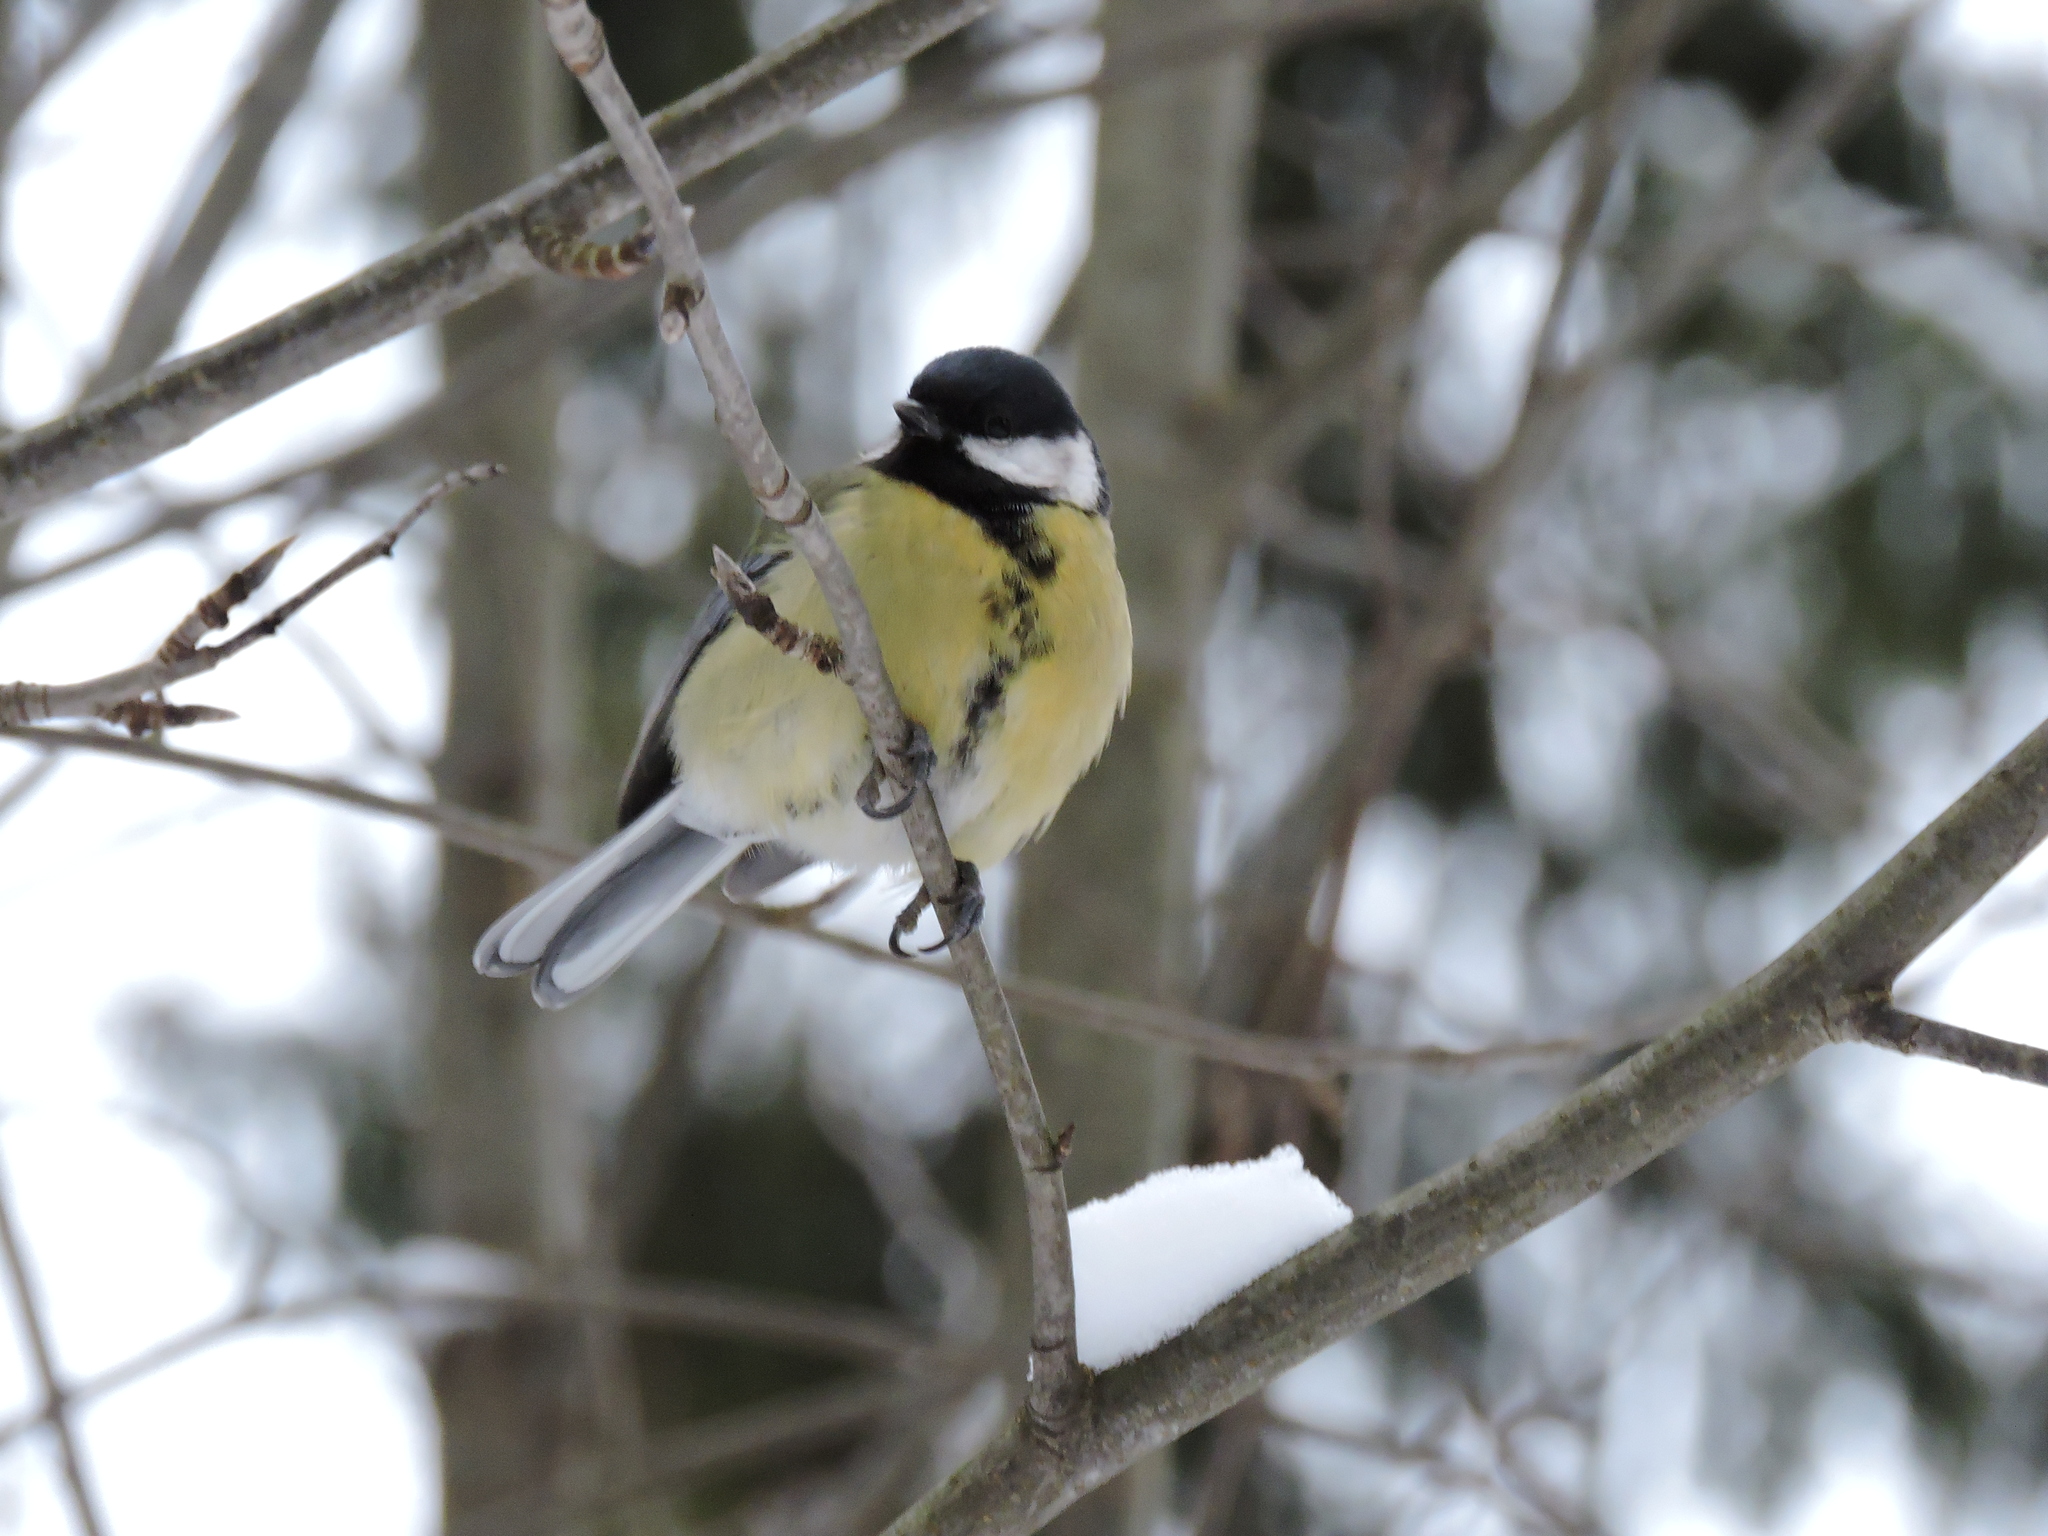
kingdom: Animalia
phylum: Chordata
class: Aves
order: Passeriformes
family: Paridae
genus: Parus
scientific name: Parus major
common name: Great tit
